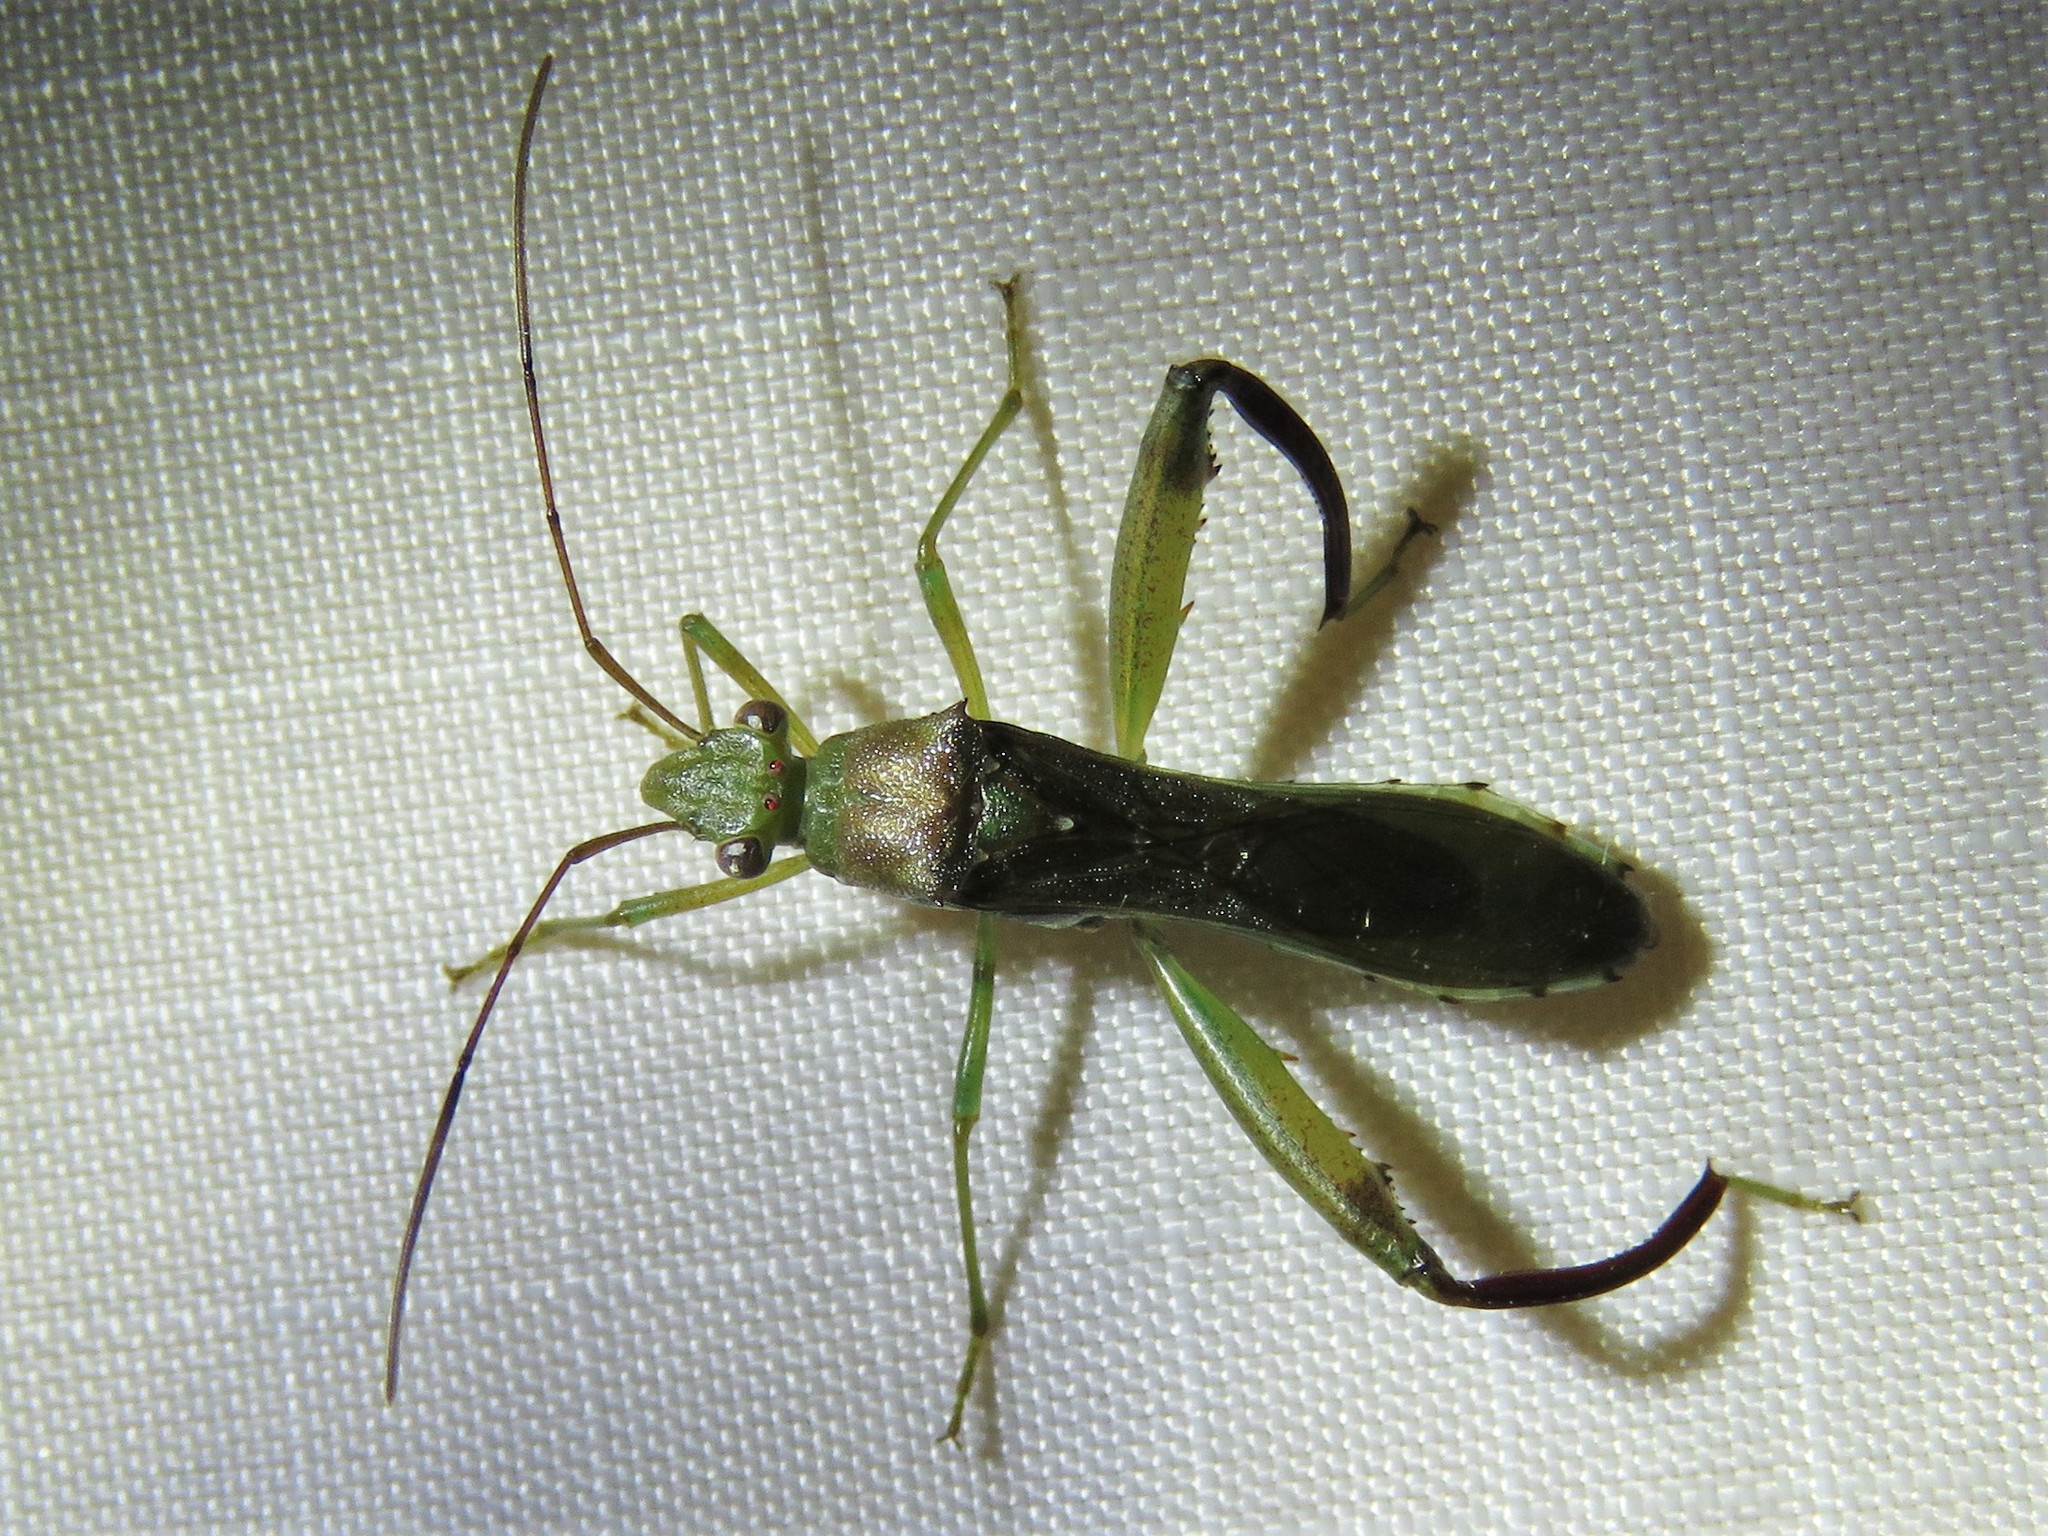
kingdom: Animalia
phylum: Arthropoda
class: Insecta
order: Hemiptera
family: Alydidae
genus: Hyalymenus
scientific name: Hyalymenus tarsatus
